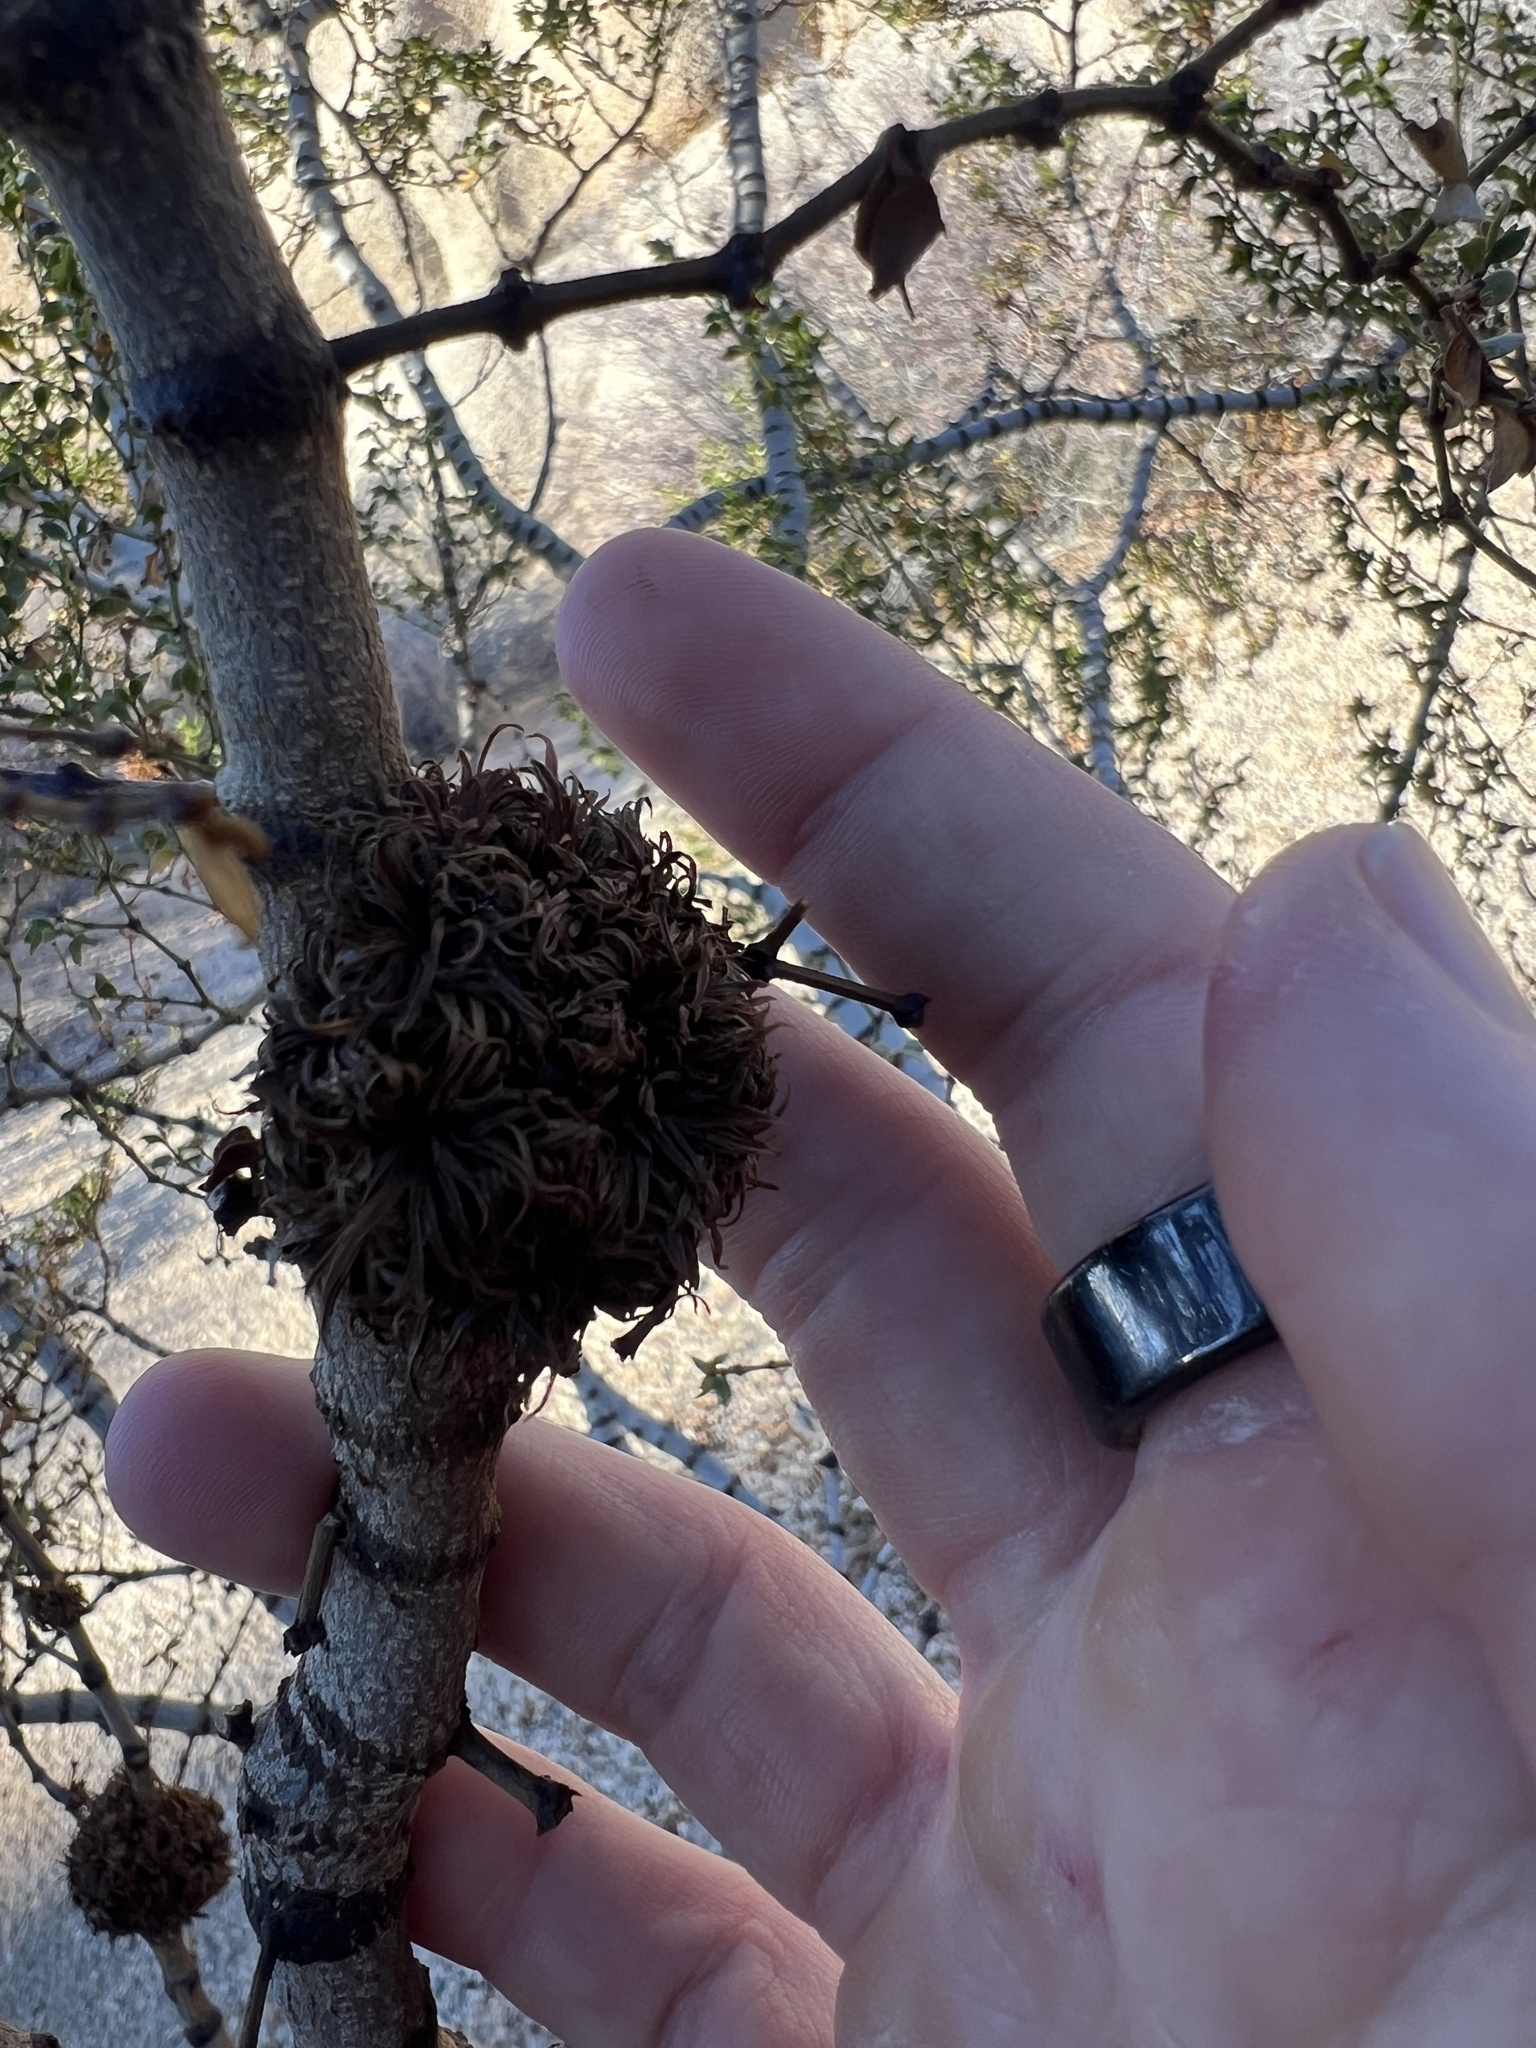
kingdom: Animalia
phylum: Arthropoda
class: Insecta
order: Diptera
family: Cecidomyiidae
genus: Asphondylia
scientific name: Asphondylia auripila
